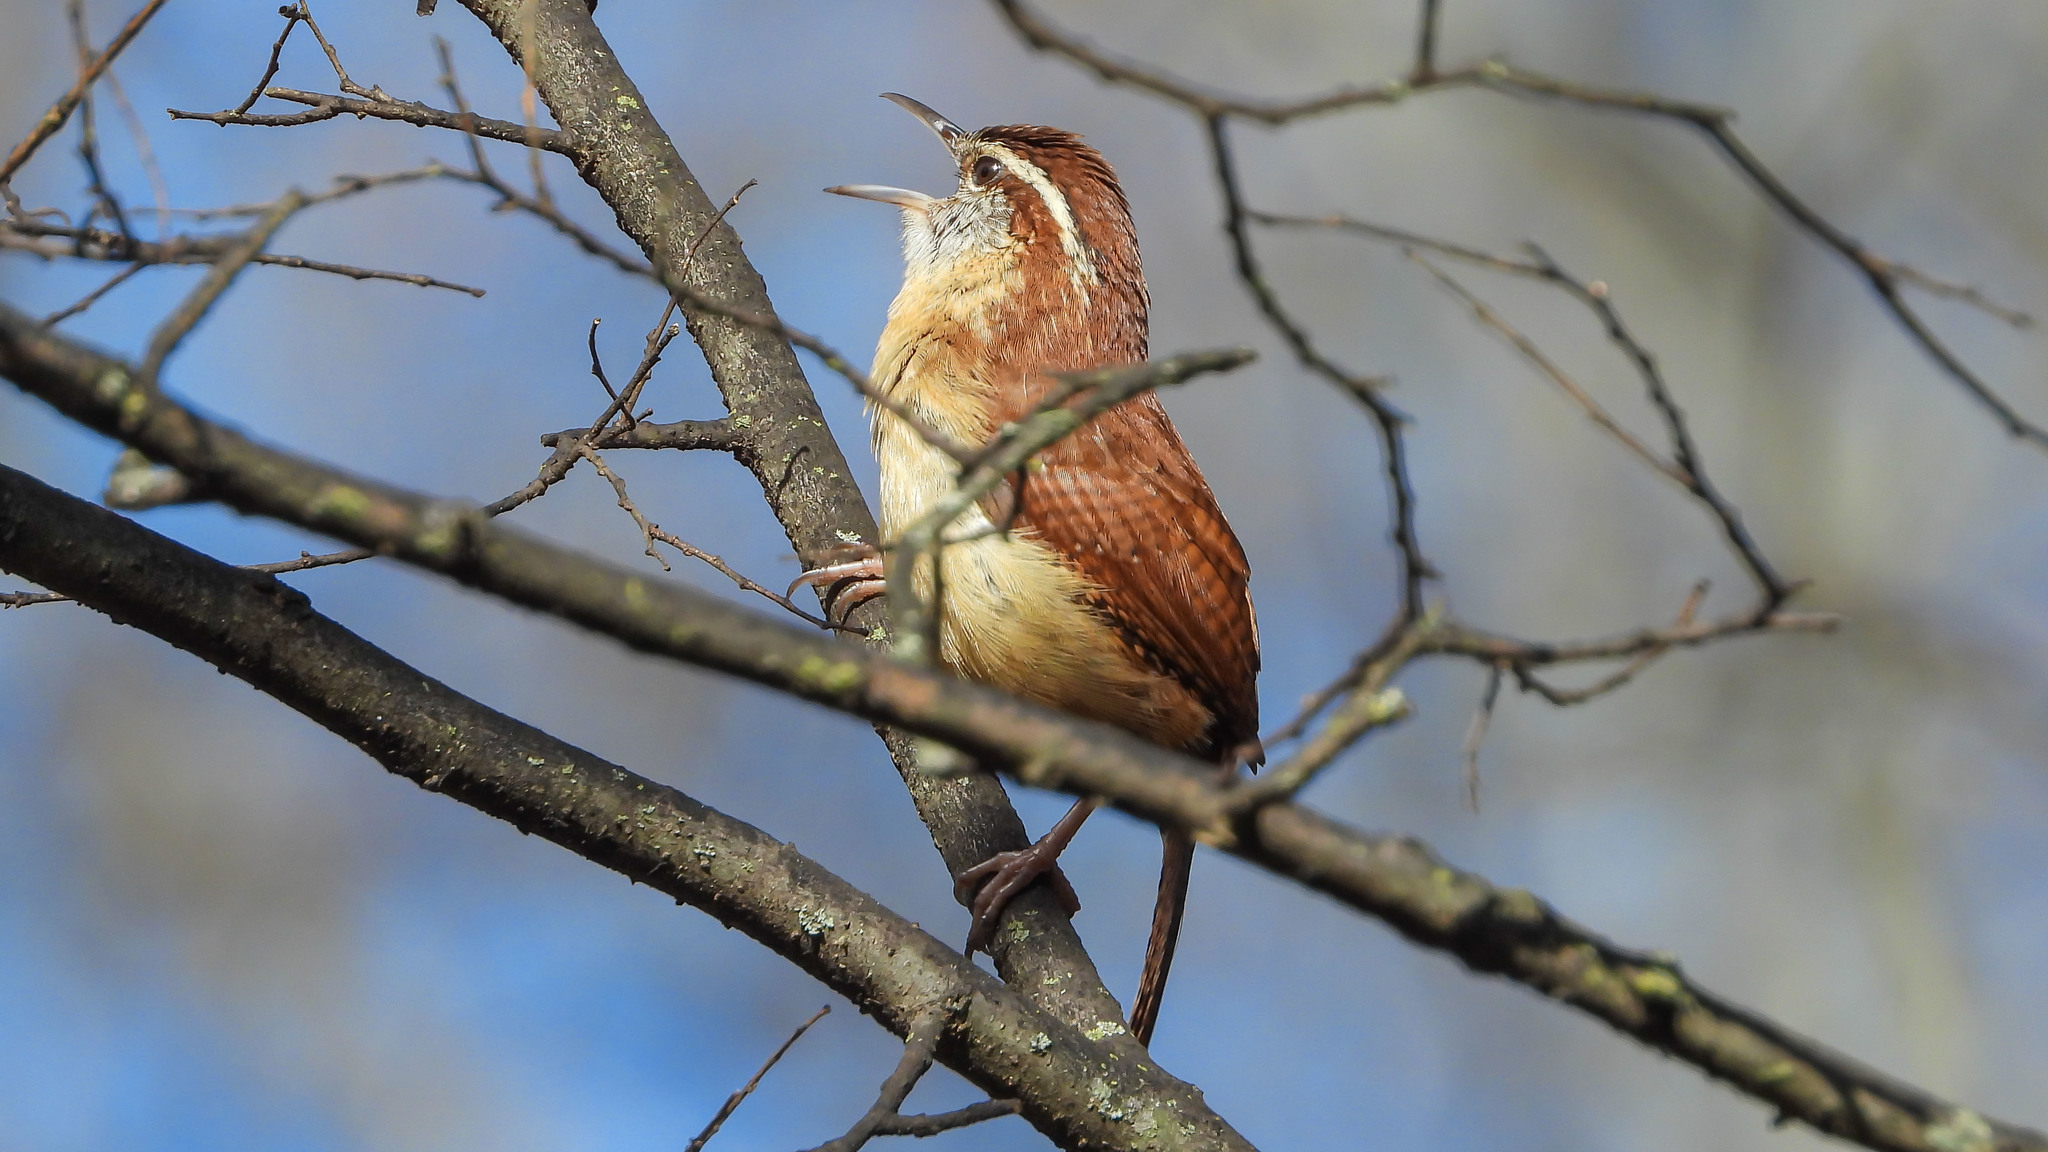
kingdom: Animalia
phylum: Chordata
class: Aves
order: Passeriformes
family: Troglodytidae
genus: Thryothorus
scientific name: Thryothorus ludovicianus
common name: Carolina wren
